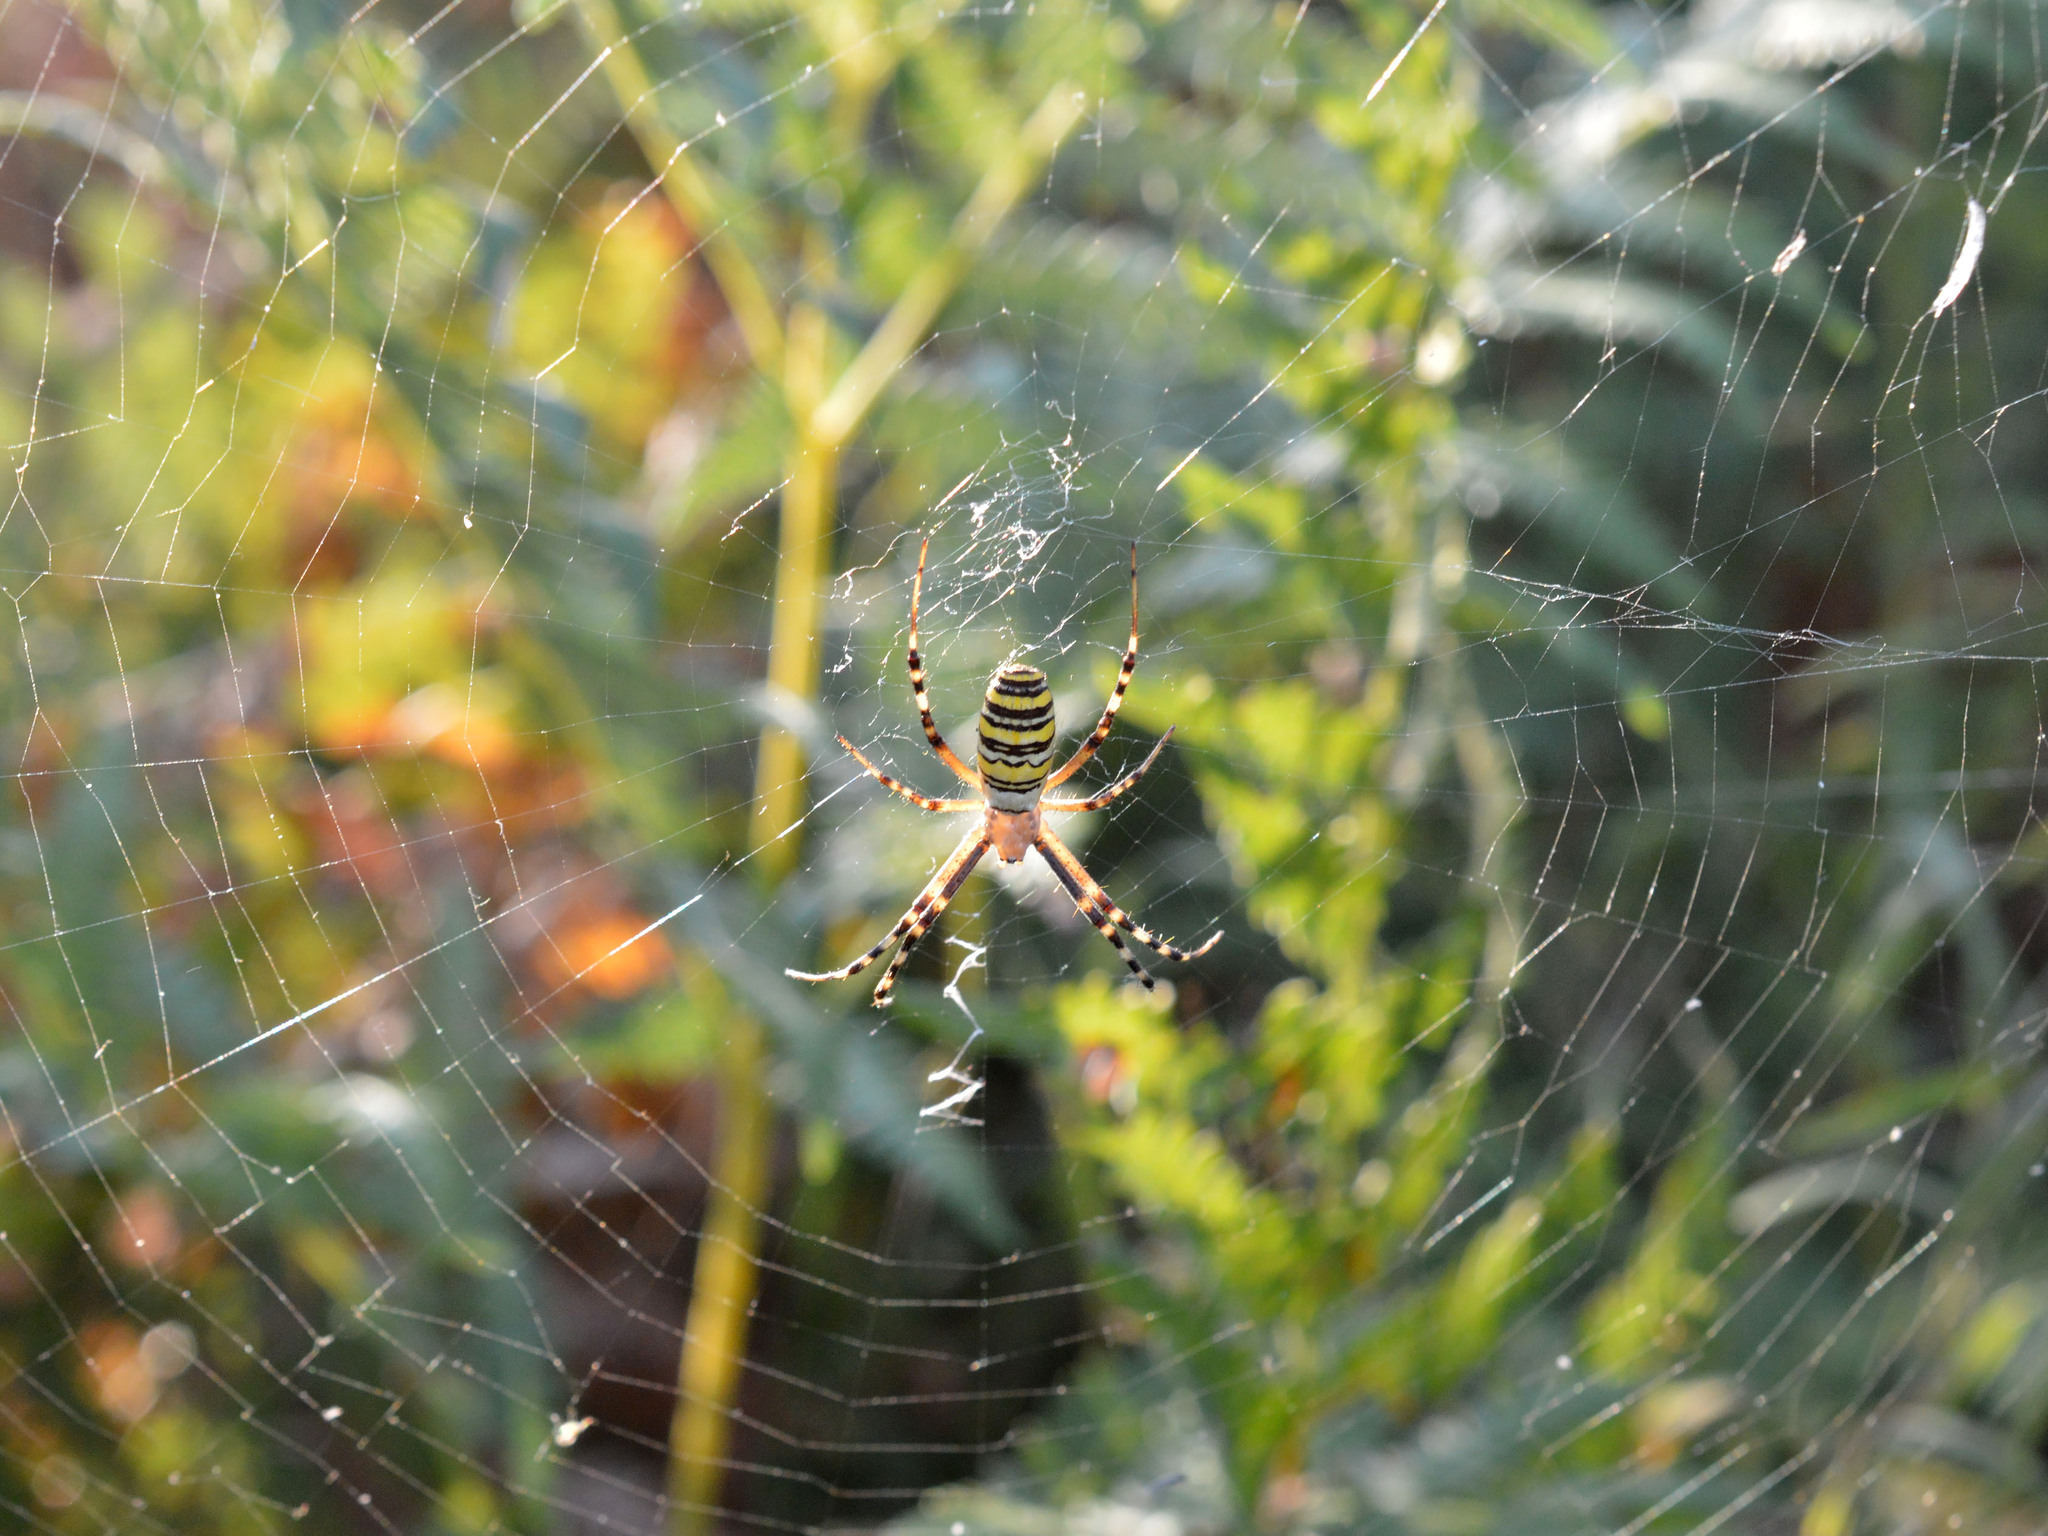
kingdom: Animalia
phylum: Arthropoda
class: Arachnida
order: Araneae
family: Araneidae
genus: Argiope
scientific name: Argiope bruennichi
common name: Wasp spider
